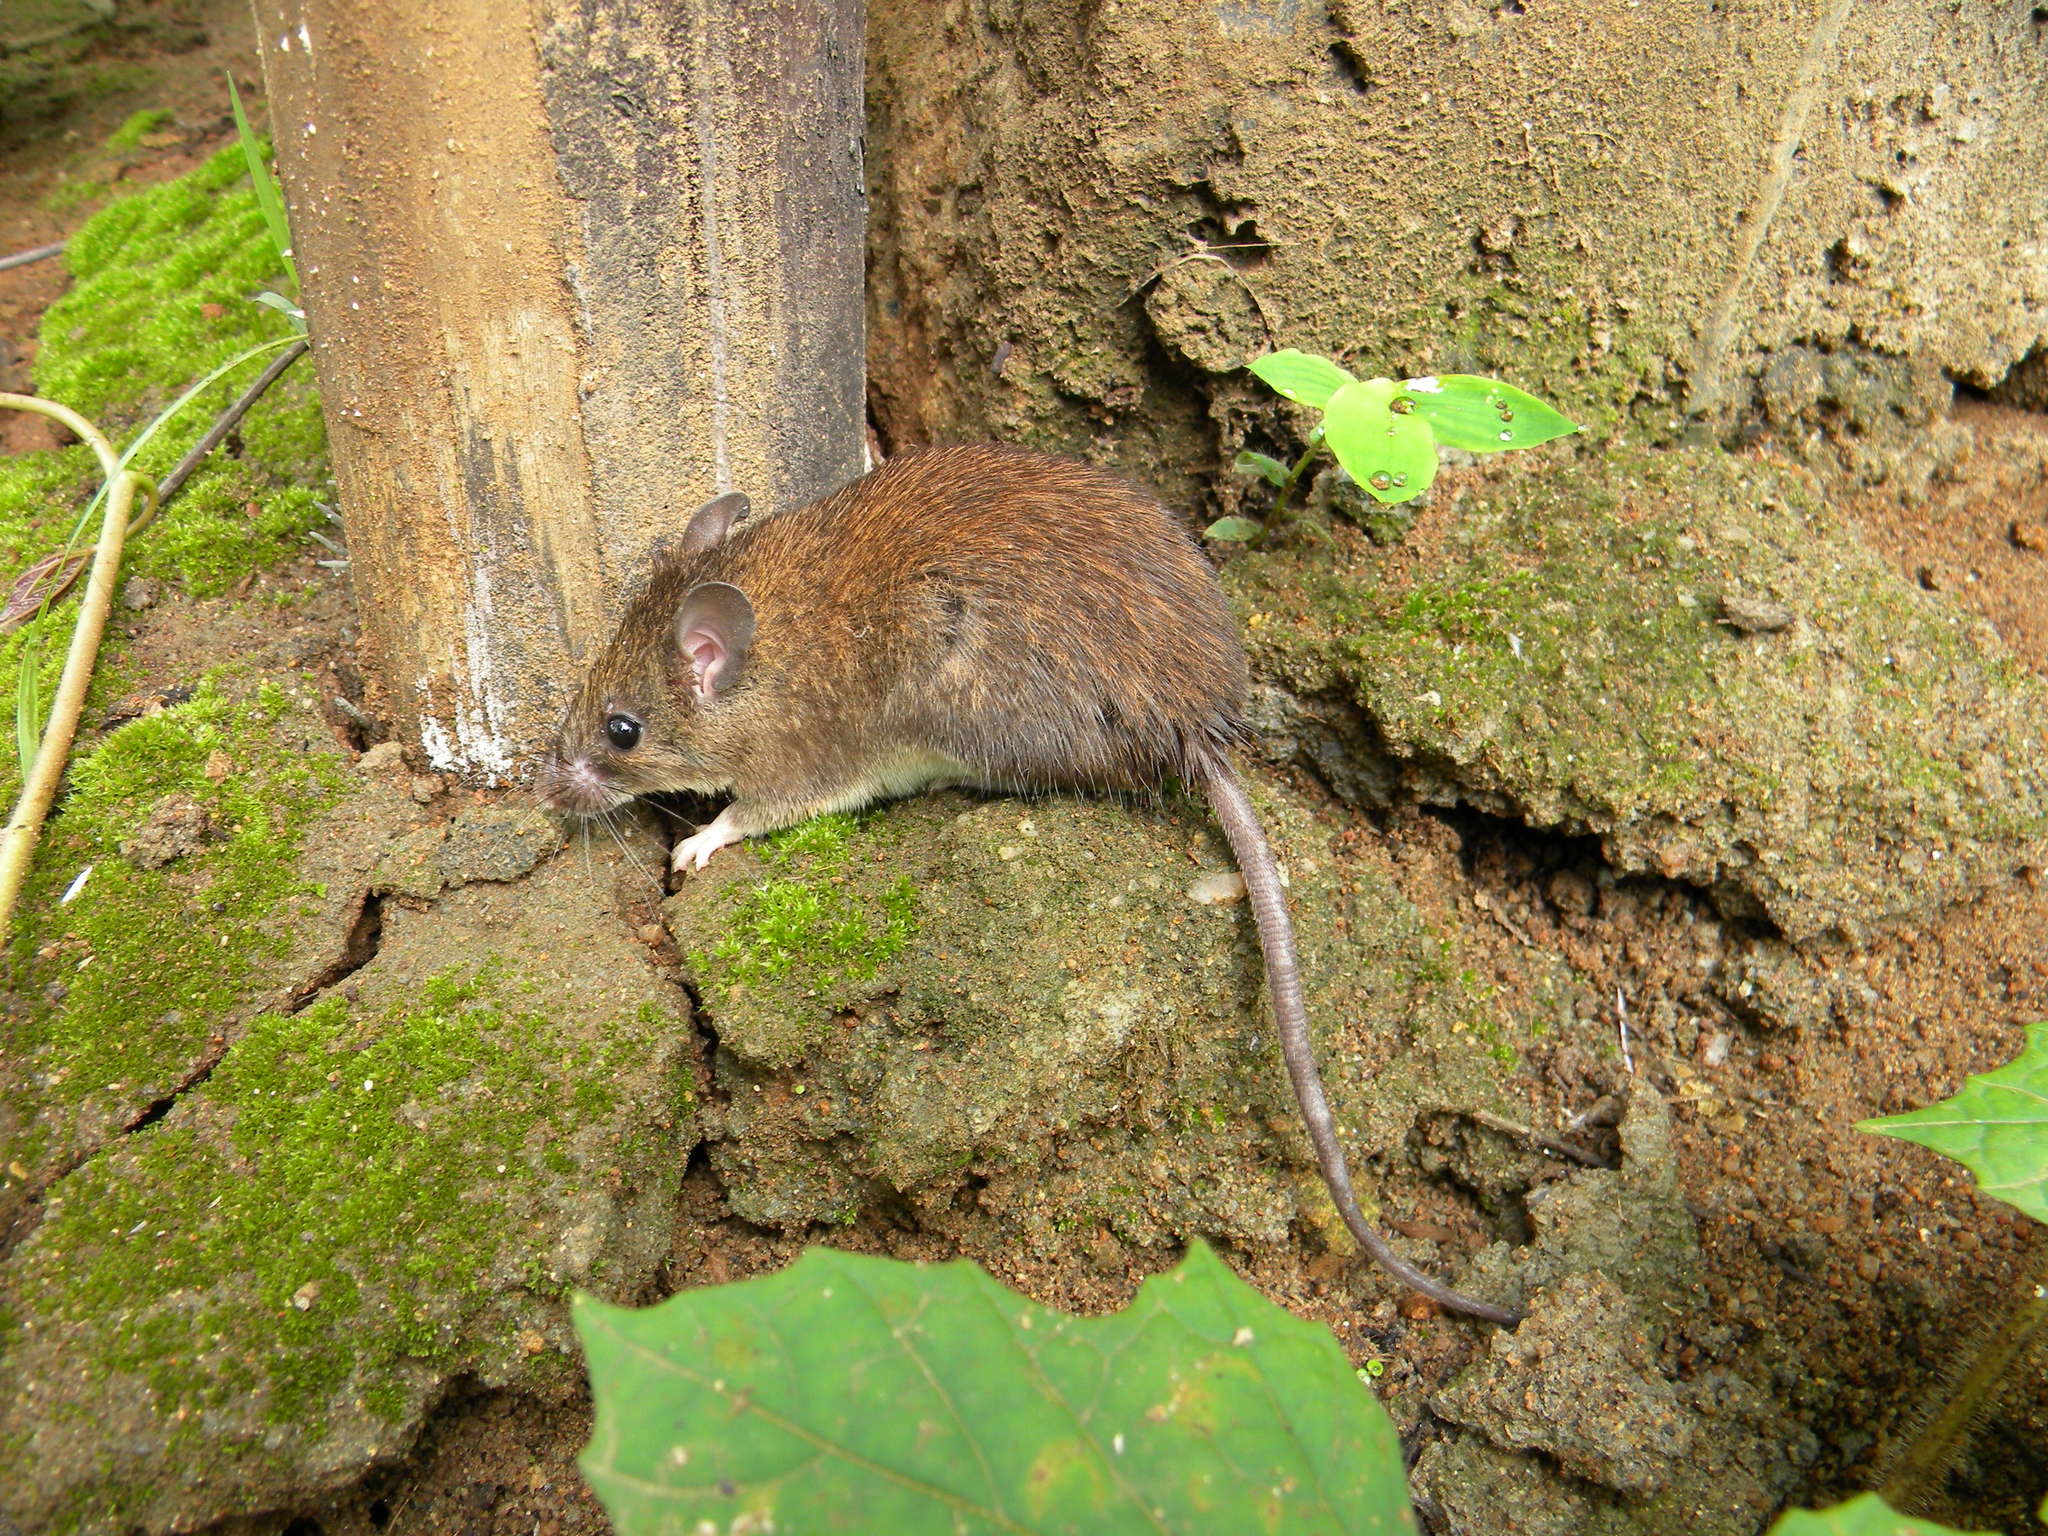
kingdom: Animalia
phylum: Chordata
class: Mammalia
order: Rodentia
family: Muridae
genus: Rattus
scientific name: Rattus satarae
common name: Sahyadris forest rat
